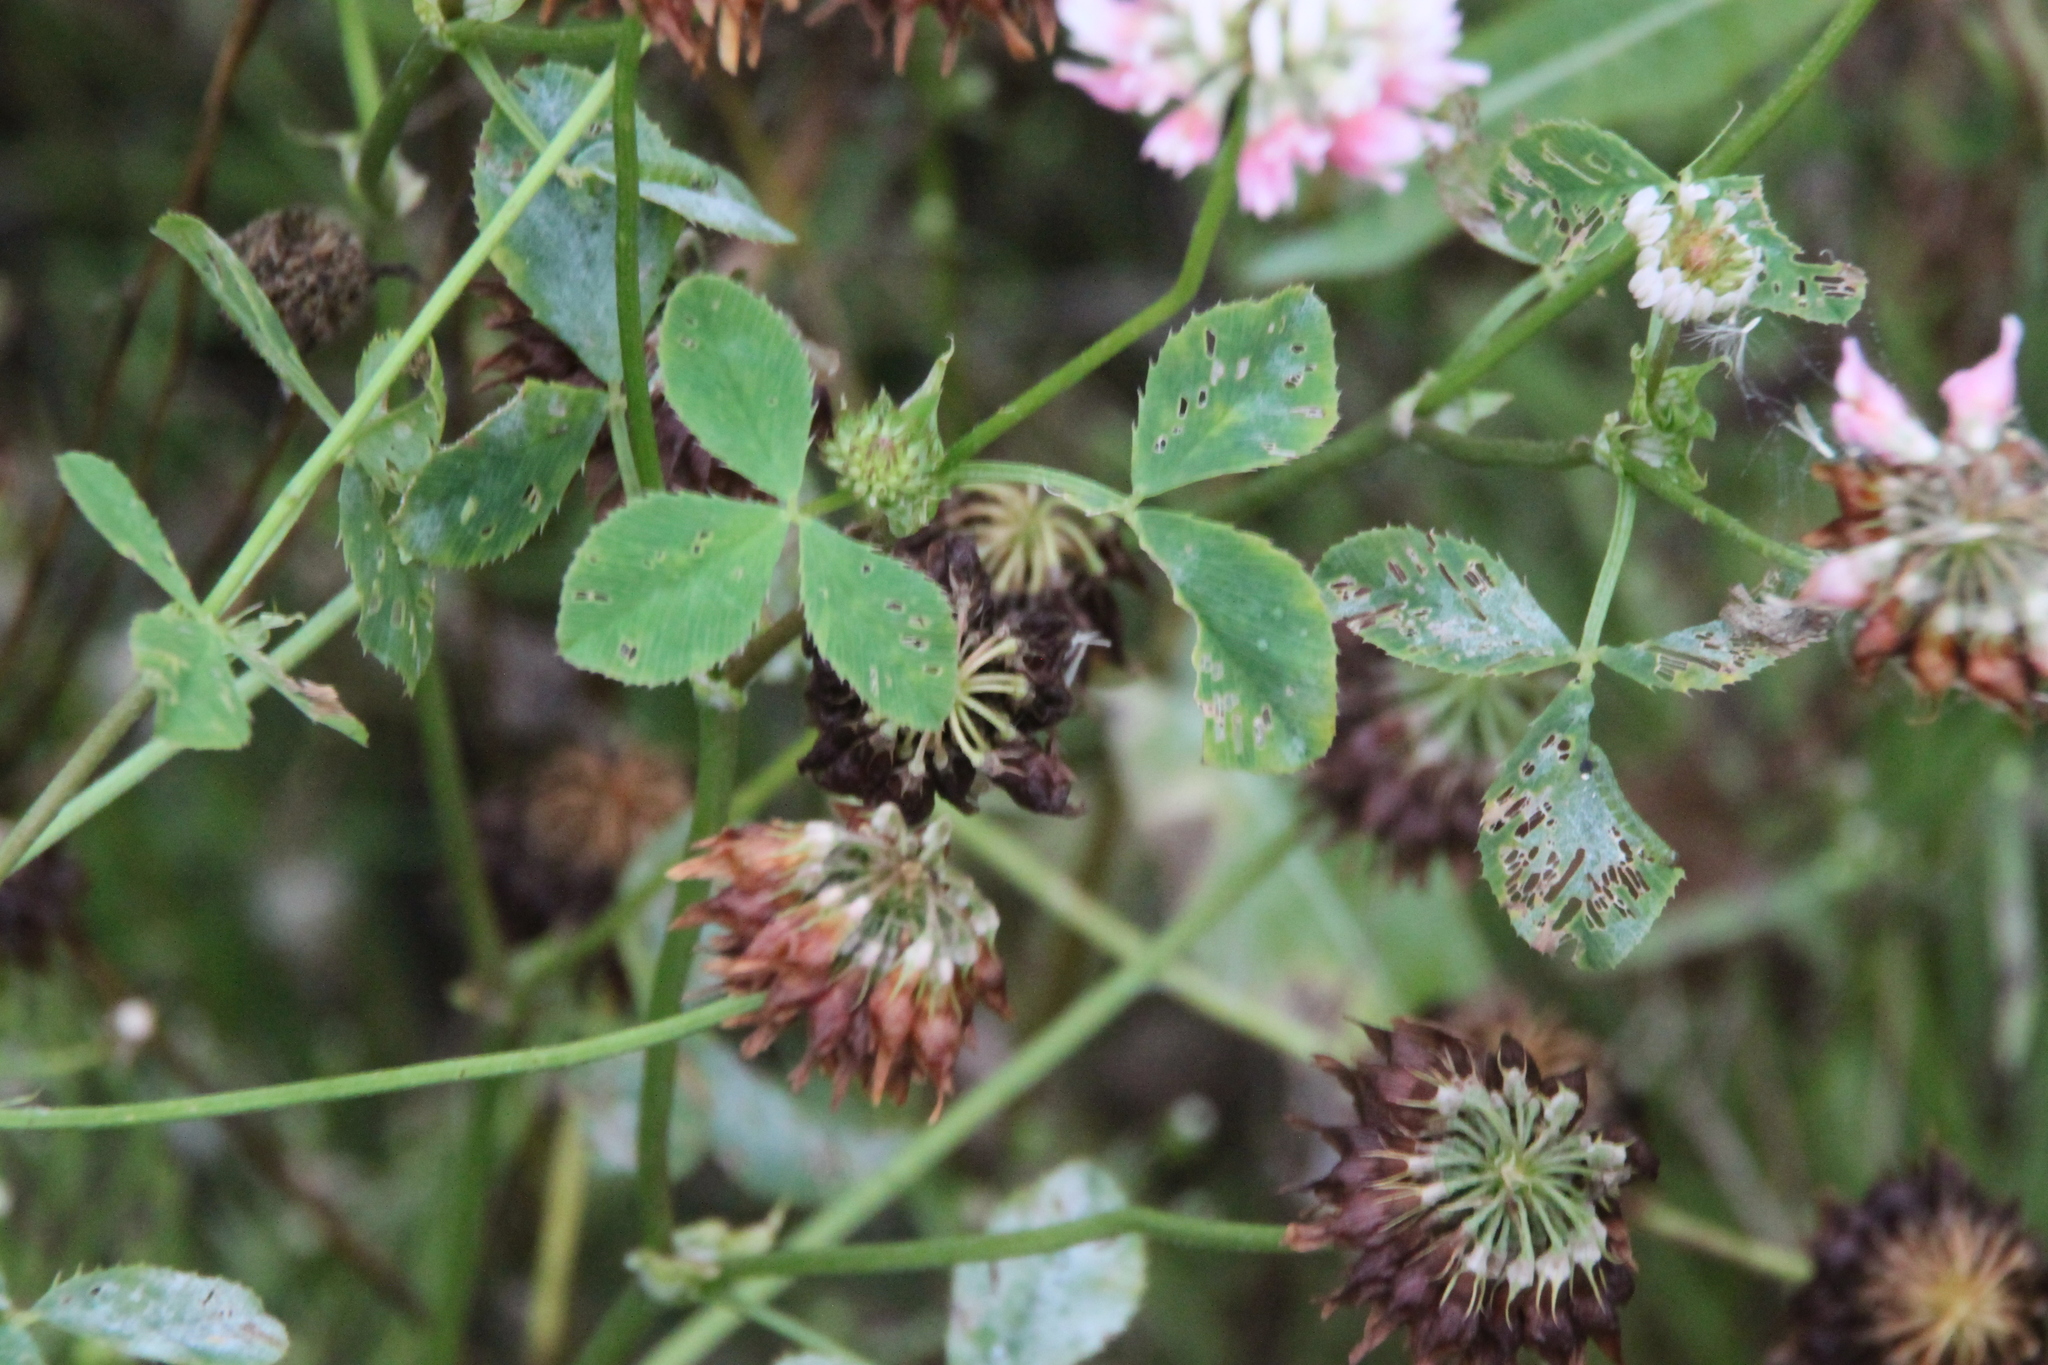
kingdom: Plantae
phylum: Tracheophyta
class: Magnoliopsida
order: Fabales
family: Fabaceae
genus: Trifolium
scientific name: Trifolium hybridum
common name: Alsike clover
